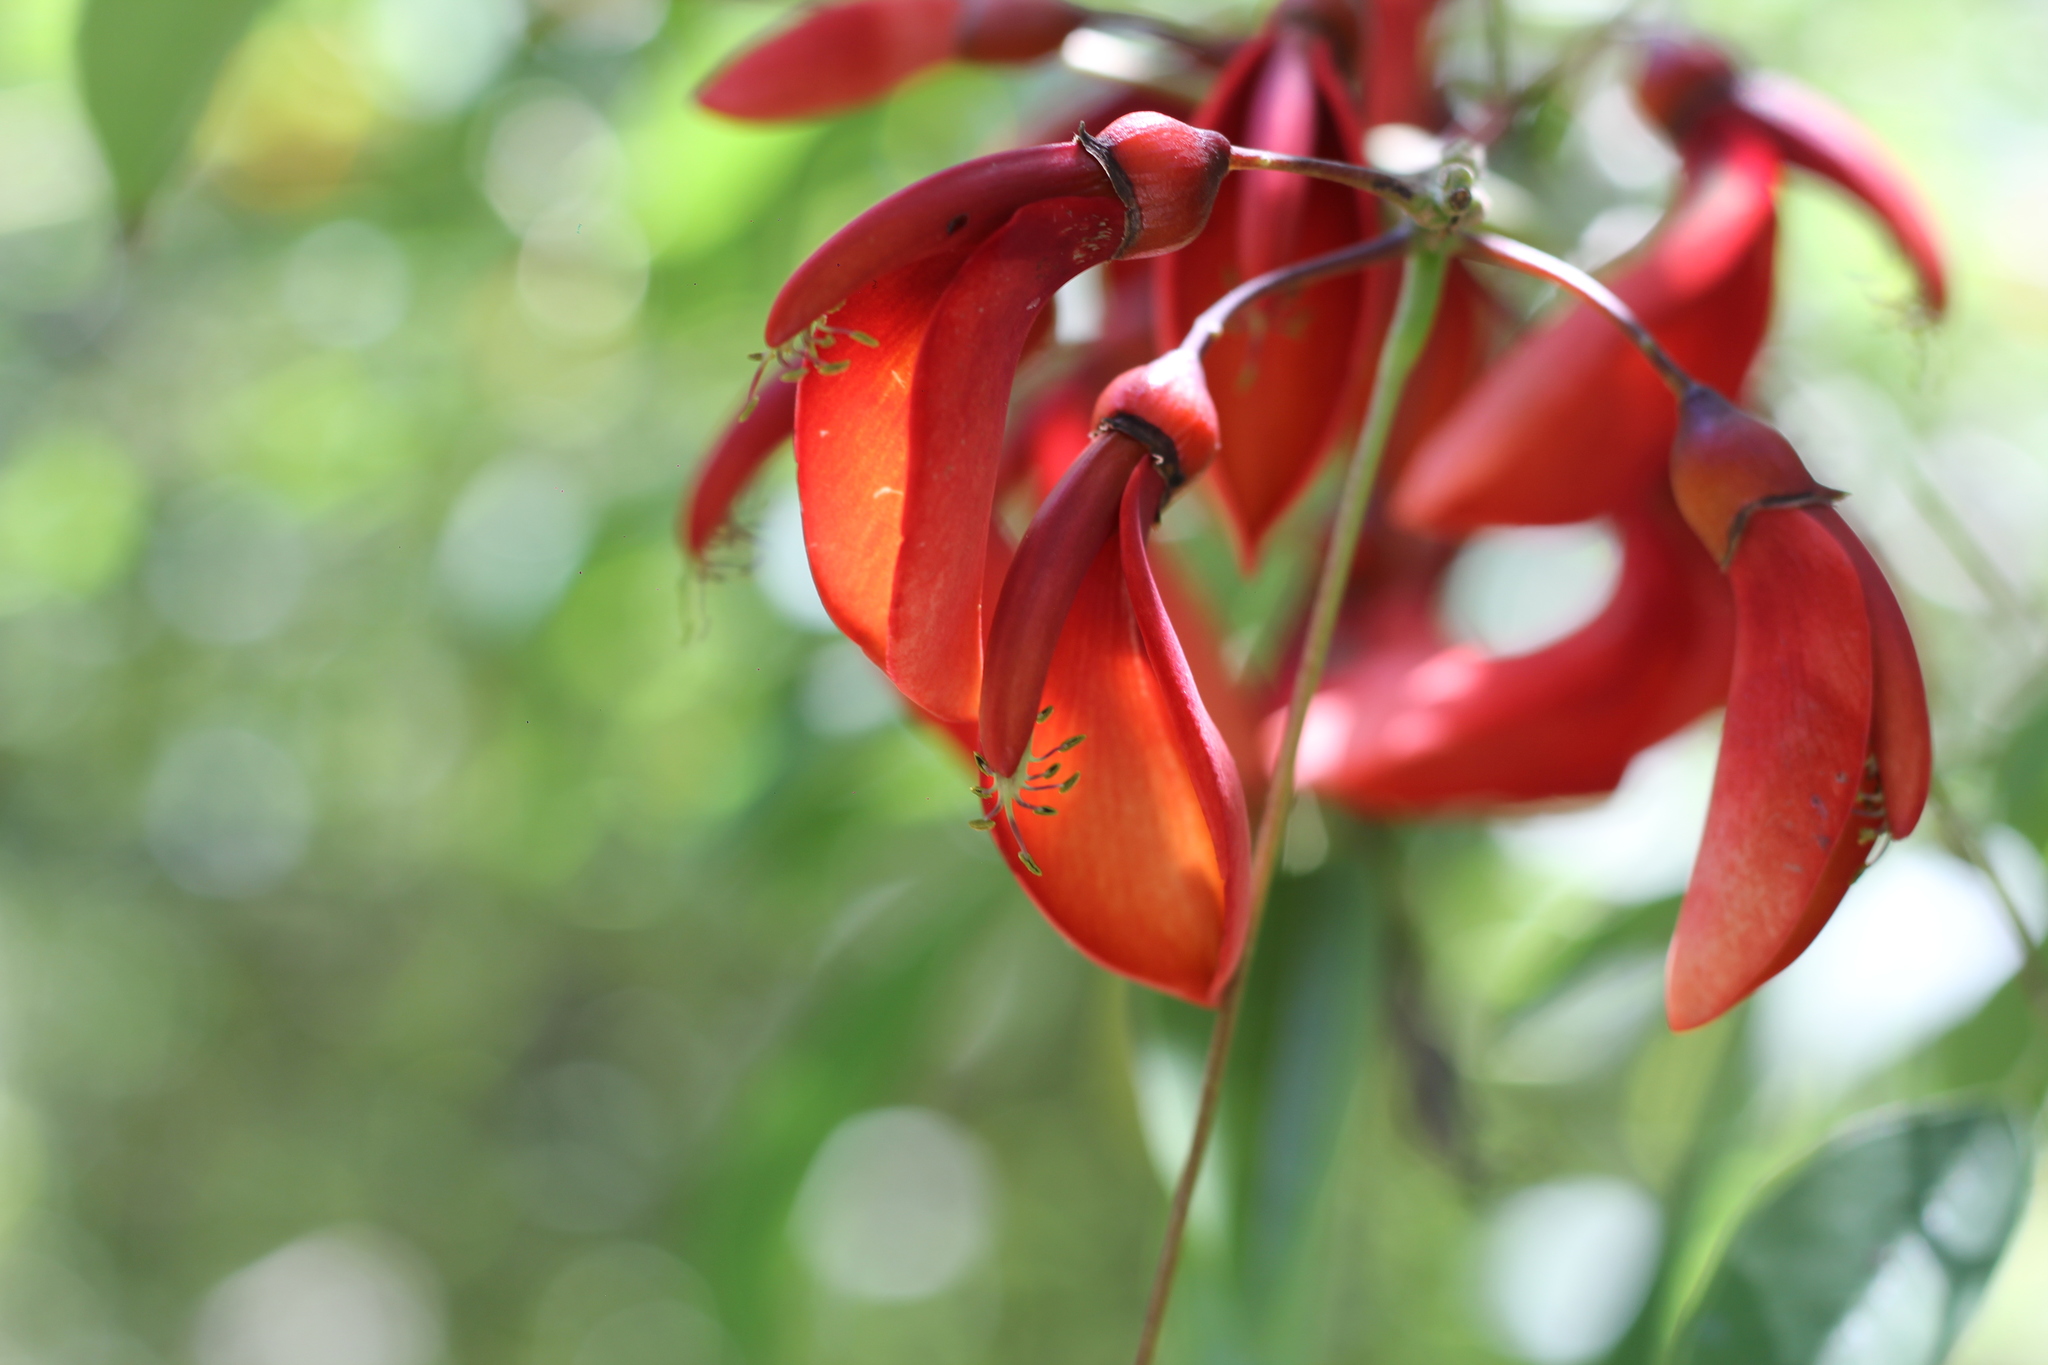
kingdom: Plantae
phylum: Tracheophyta
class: Magnoliopsida
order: Fabales
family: Fabaceae
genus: Erythrina
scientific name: Erythrina crista-galli
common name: Cockspur coral tree
